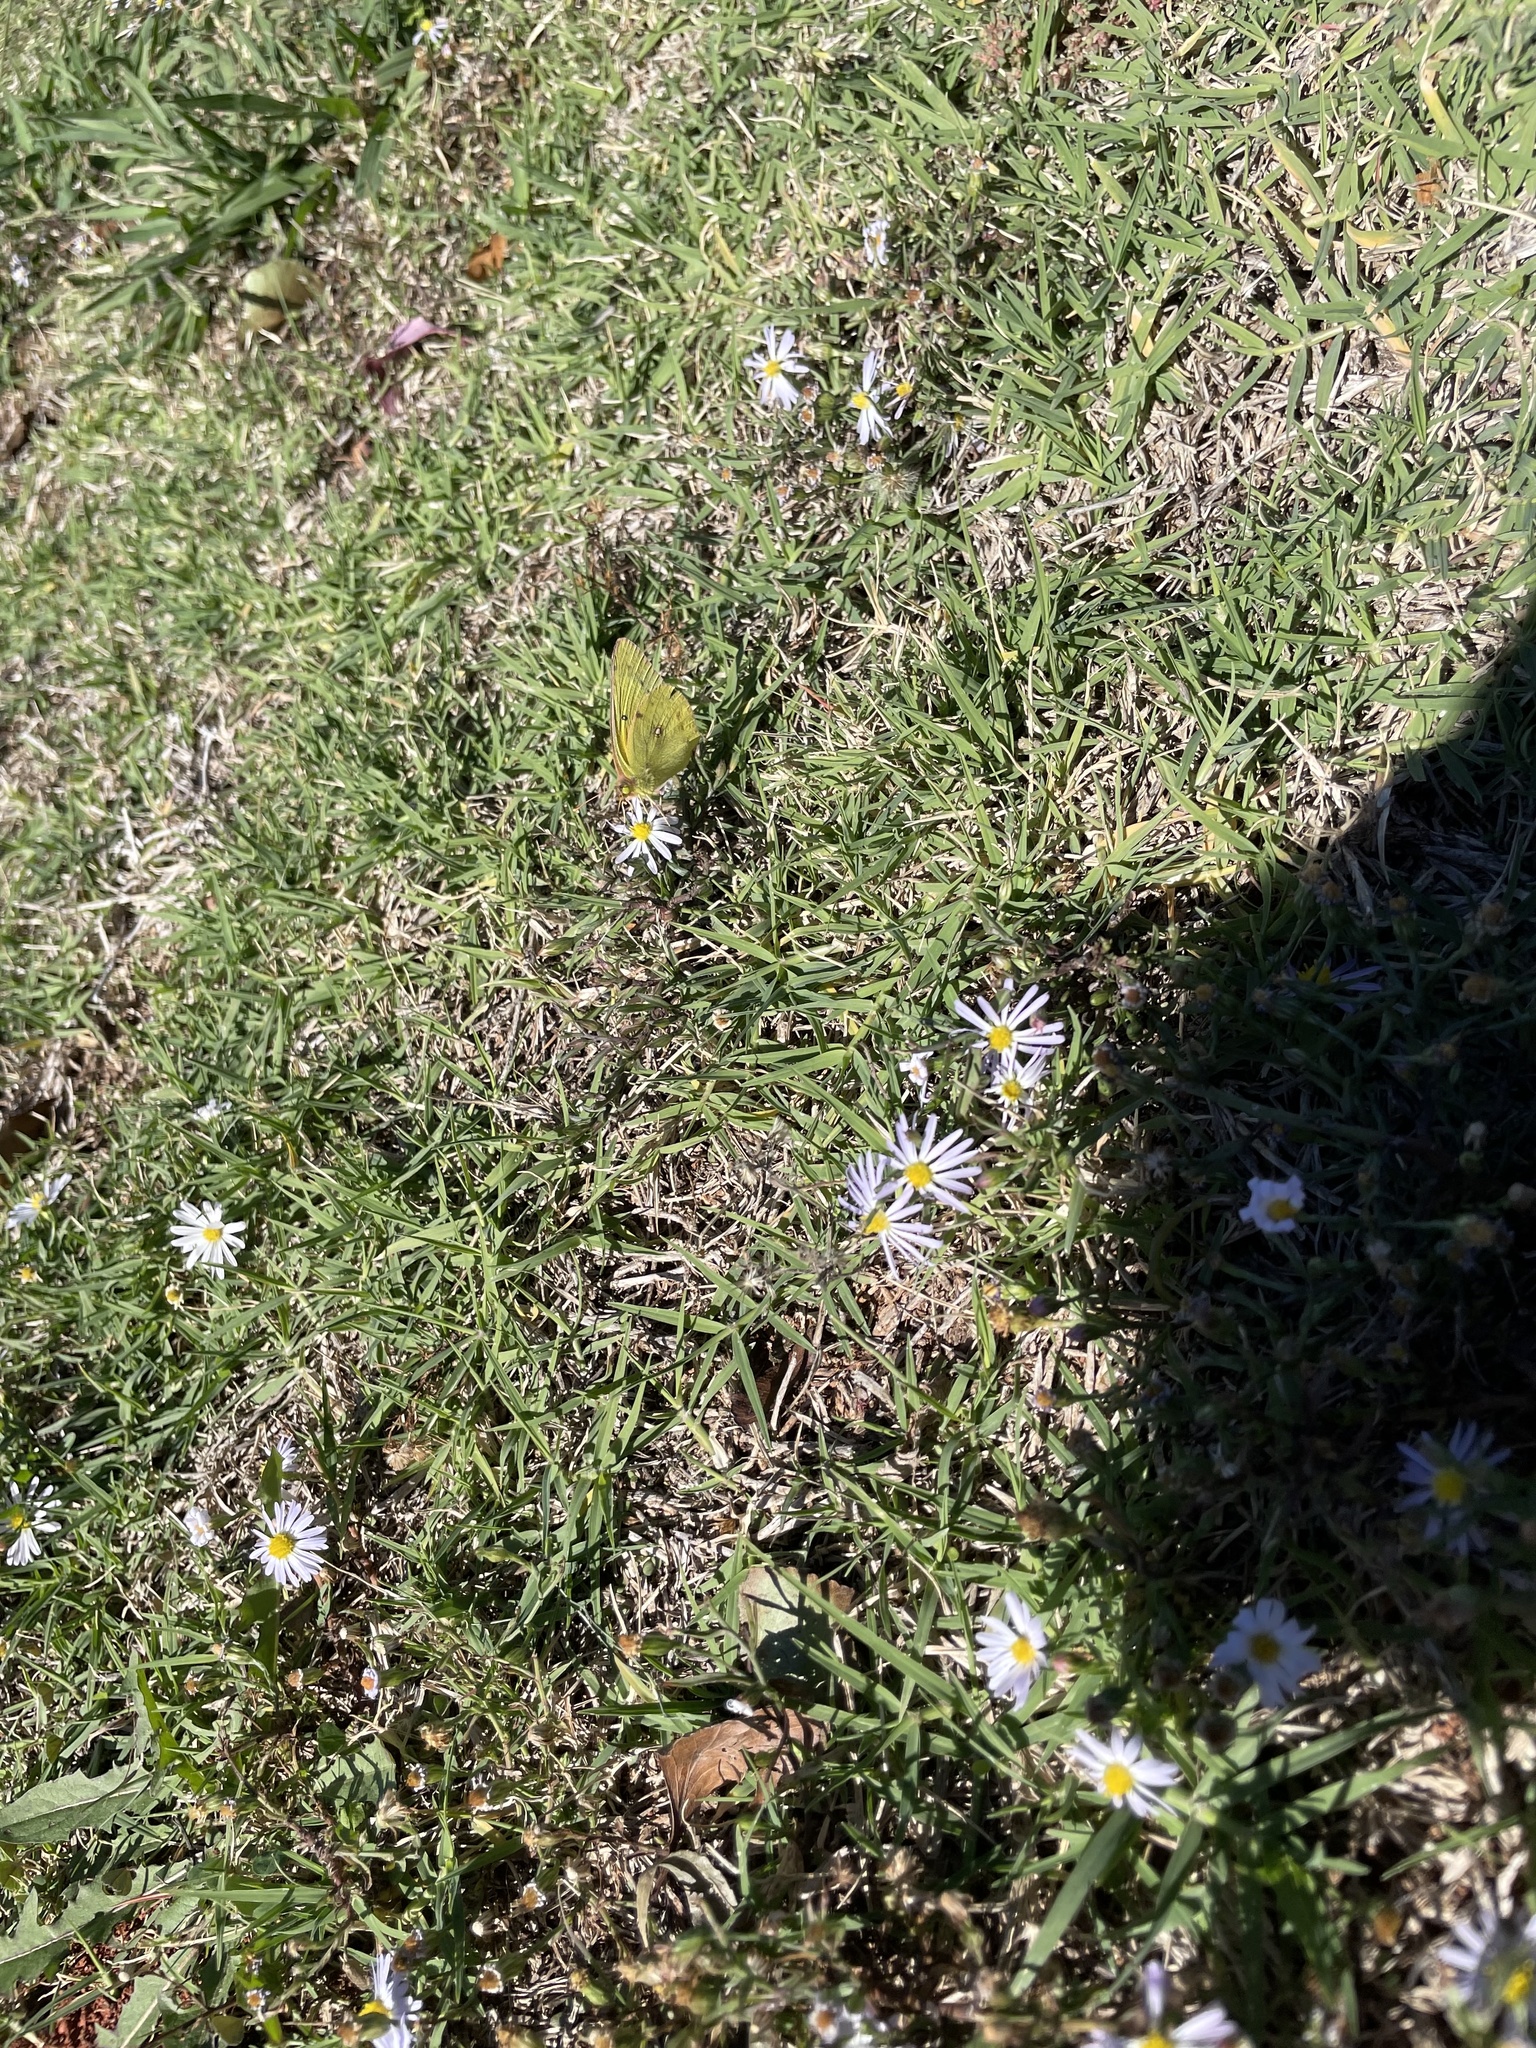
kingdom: Animalia
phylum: Arthropoda
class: Insecta
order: Lepidoptera
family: Pieridae
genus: Colias
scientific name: Colias eurytheme
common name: Alfalfa butterfly
